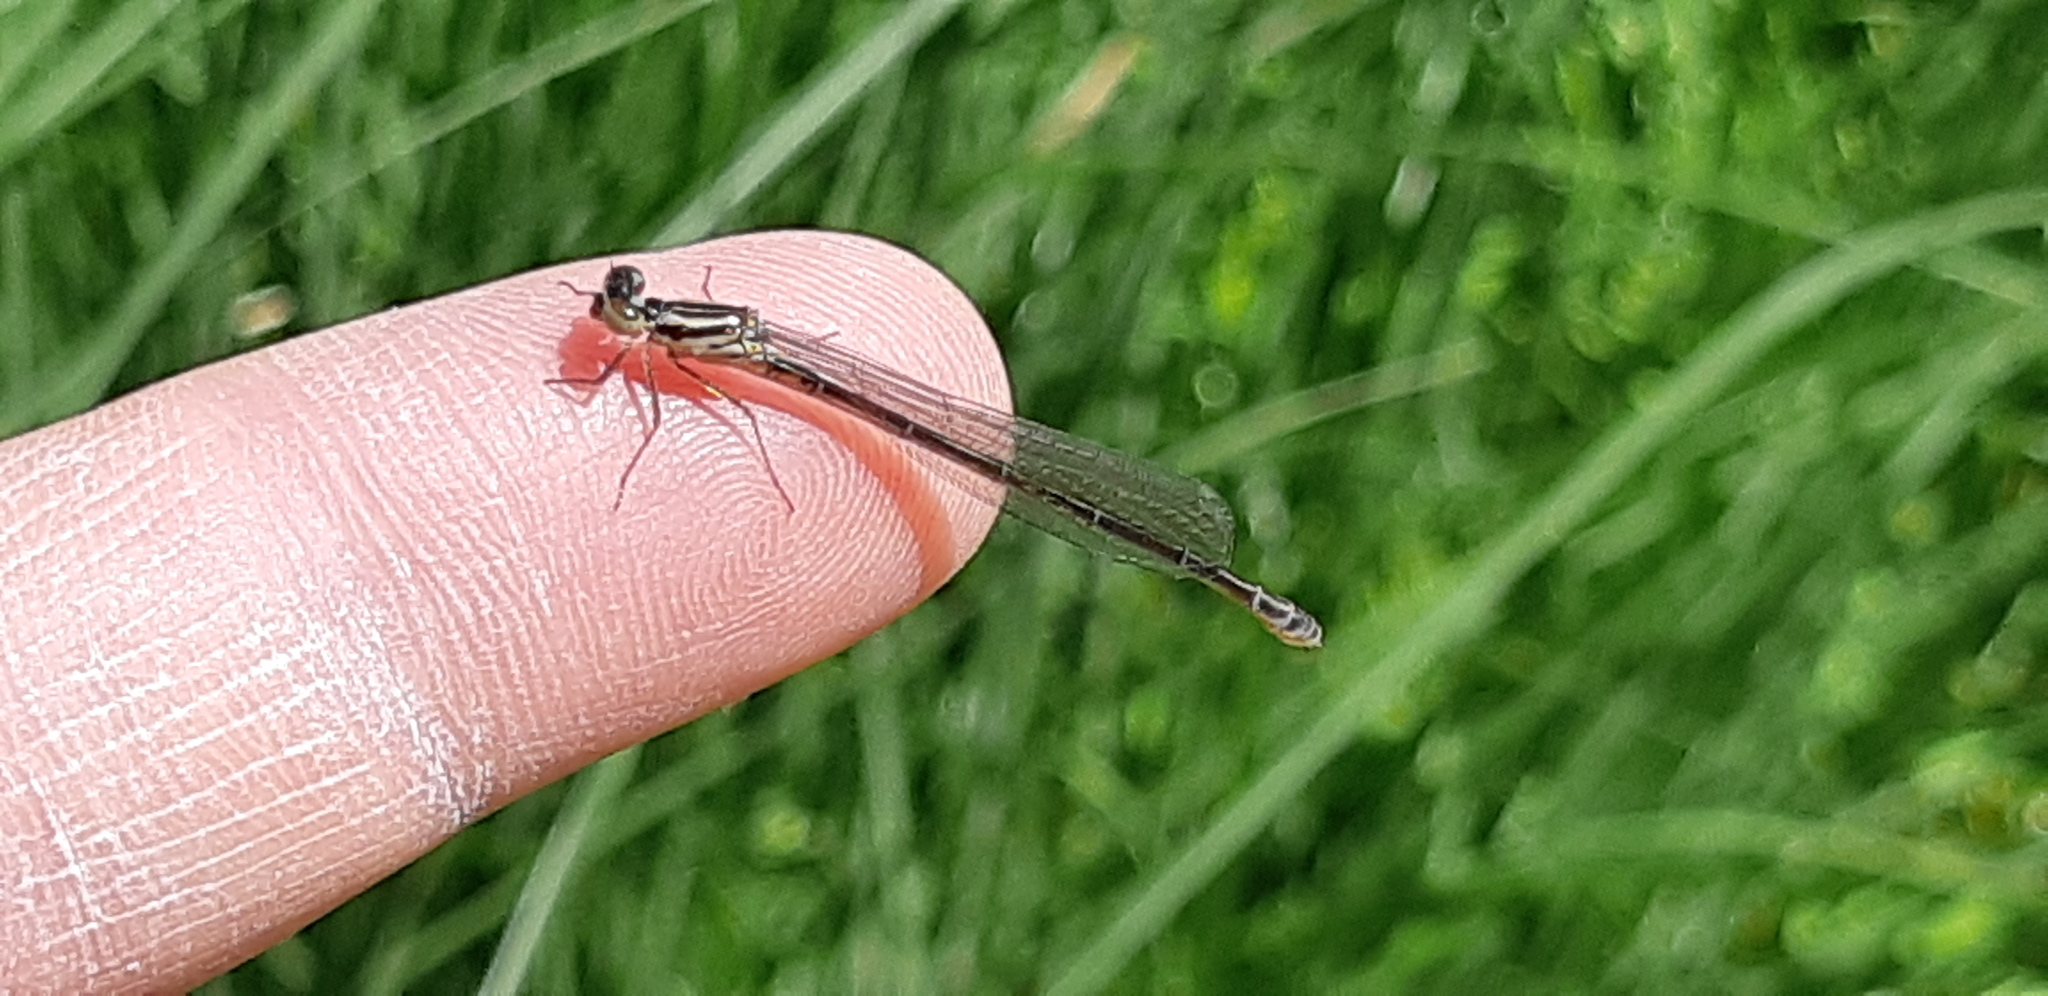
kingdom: Animalia
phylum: Arthropoda
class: Insecta
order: Odonata
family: Coenagrionidae
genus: Coenagrion
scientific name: Coenagrion puella
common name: Azure damselfly
